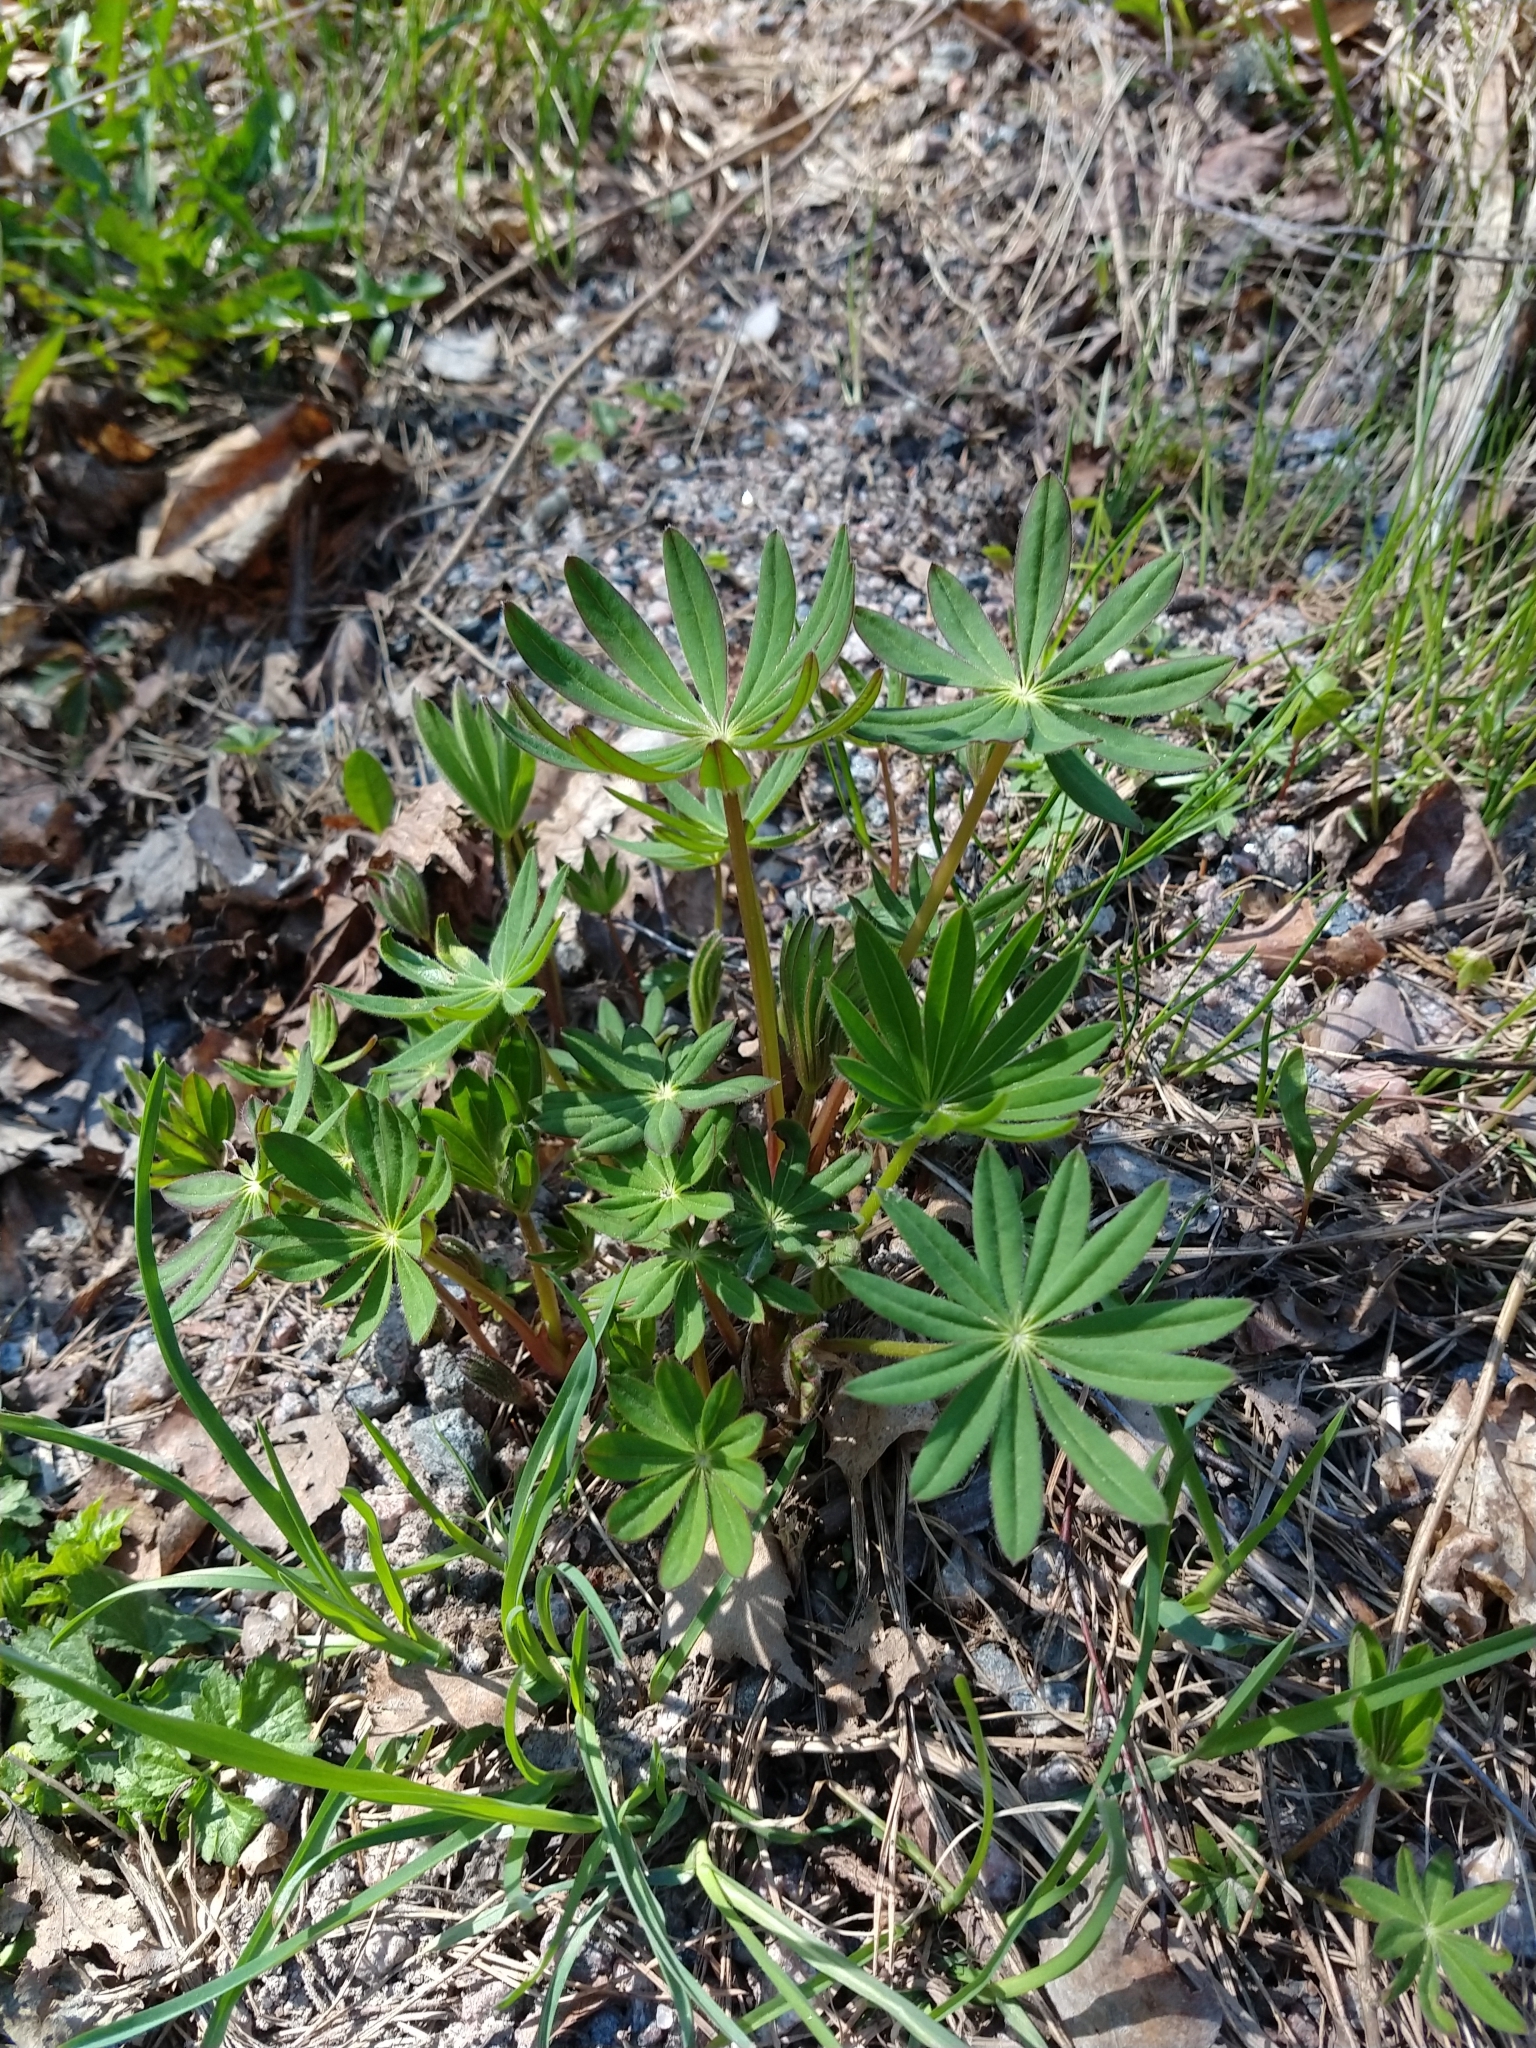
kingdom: Plantae
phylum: Tracheophyta
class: Magnoliopsida
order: Fabales
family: Fabaceae
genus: Lupinus
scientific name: Lupinus polyphyllus
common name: Garden lupin
